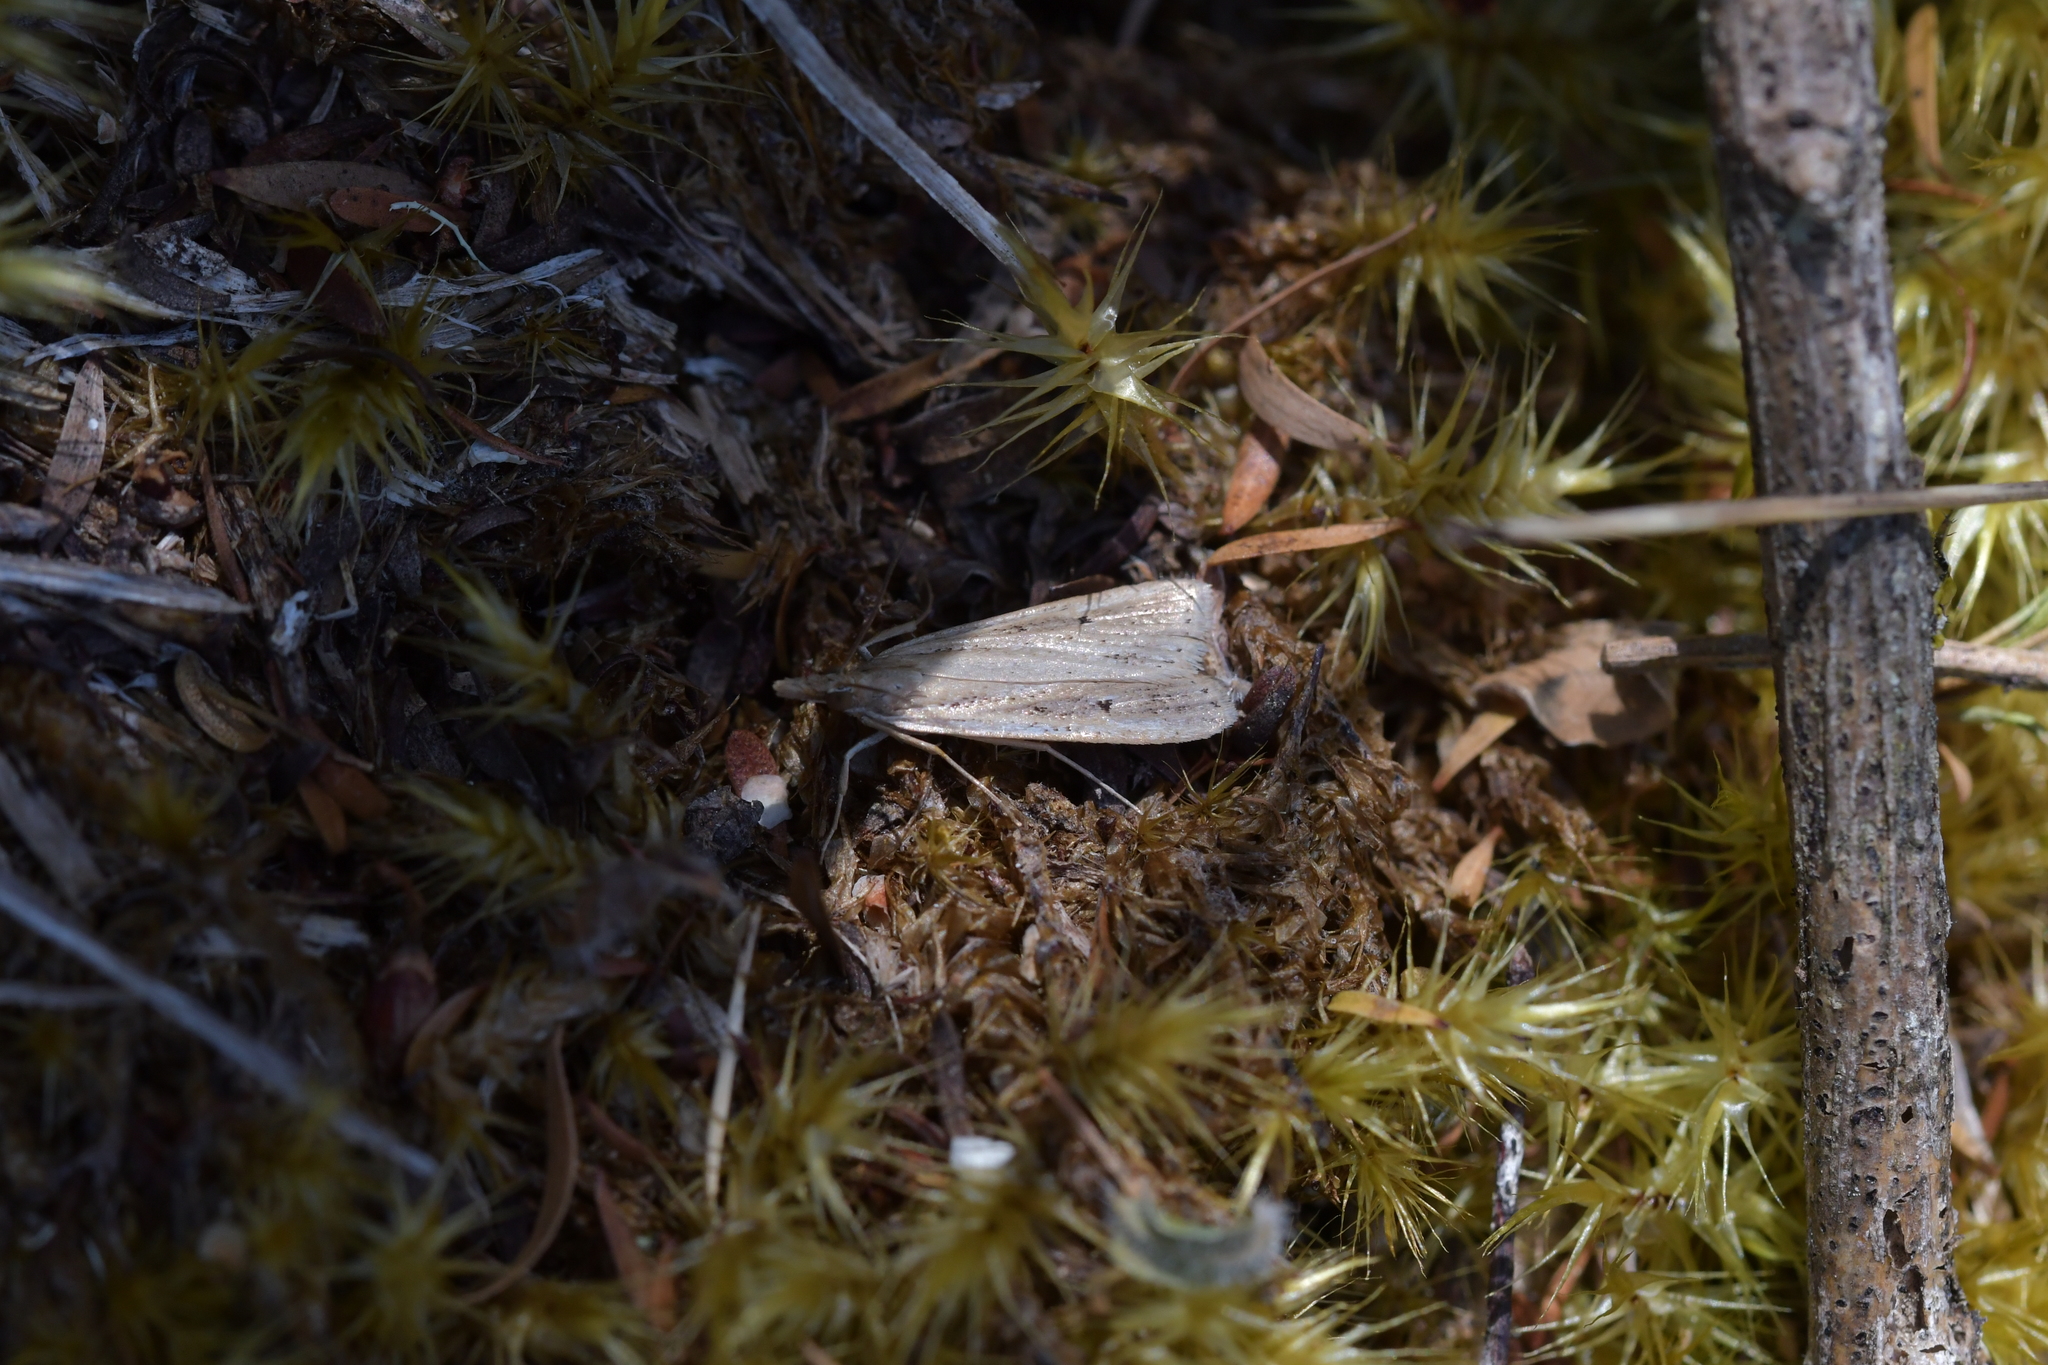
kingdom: Animalia
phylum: Arthropoda
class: Insecta
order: Lepidoptera
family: Crambidae
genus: Eudonia
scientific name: Eudonia sabulosella
